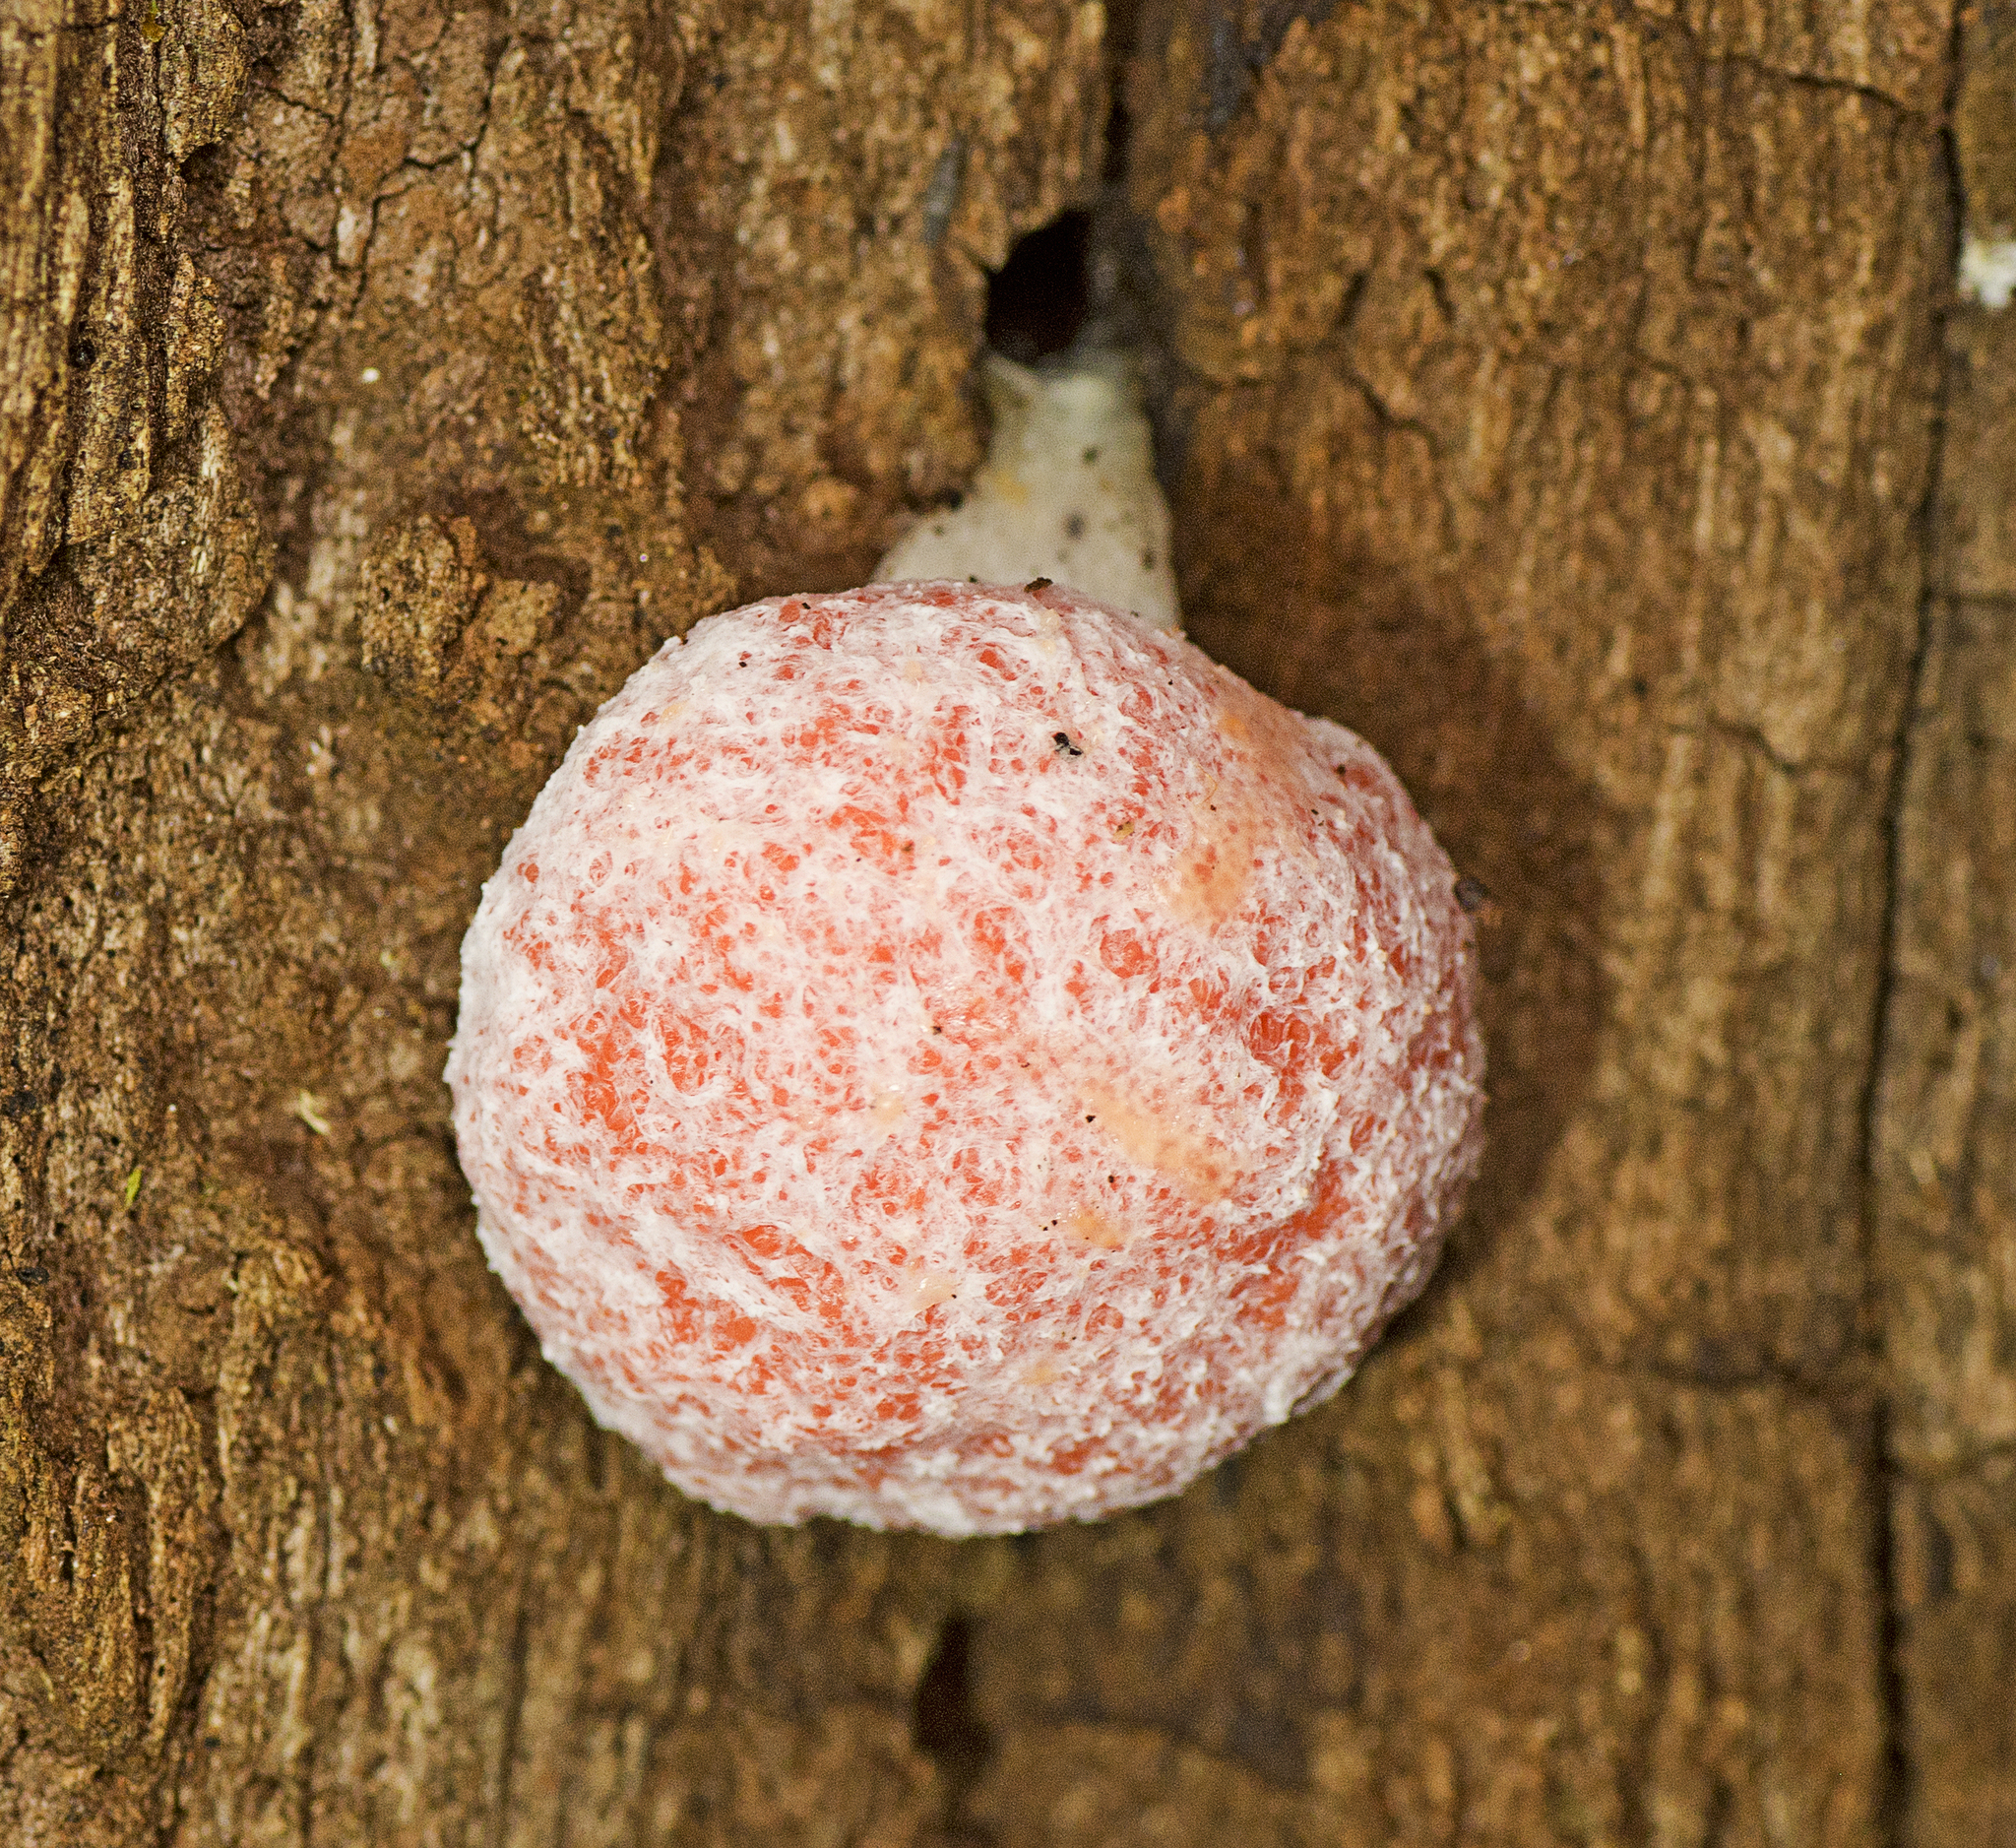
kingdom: Protozoa
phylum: Mycetozoa
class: Myxomycetes
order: Cribrariales
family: Tubiferaceae
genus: Tubifera
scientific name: Tubifera tomentosa
